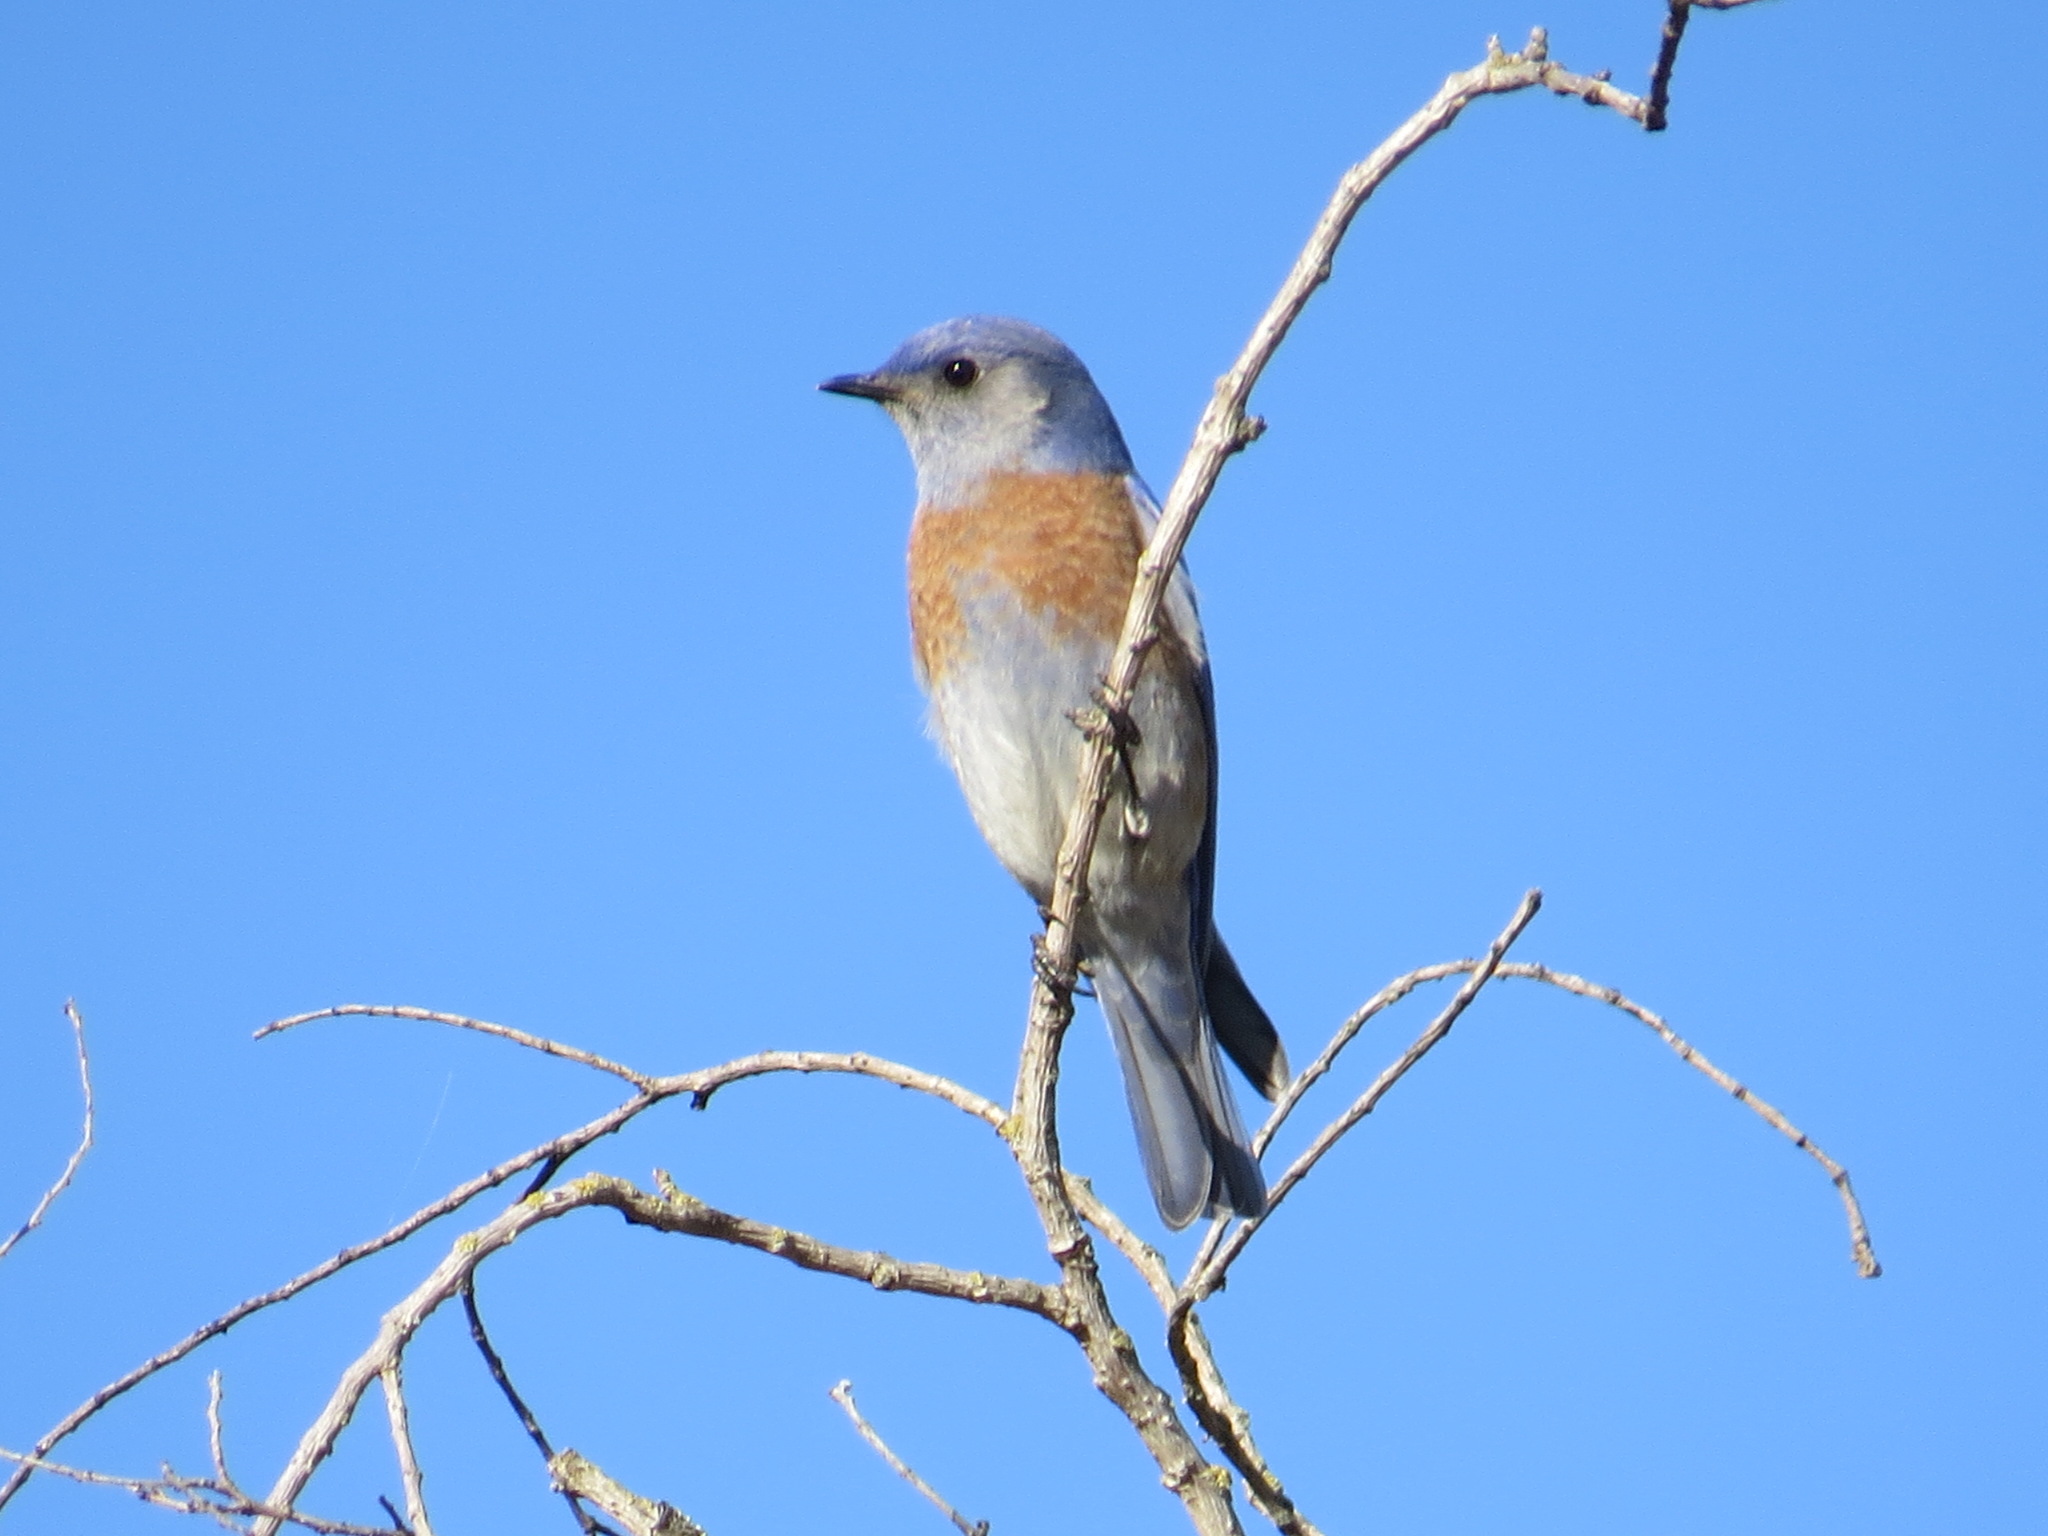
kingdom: Animalia
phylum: Chordata
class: Aves
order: Passeriformes
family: Turdidae
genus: Sialia
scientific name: Sialia mexicana
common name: Western bluebird
